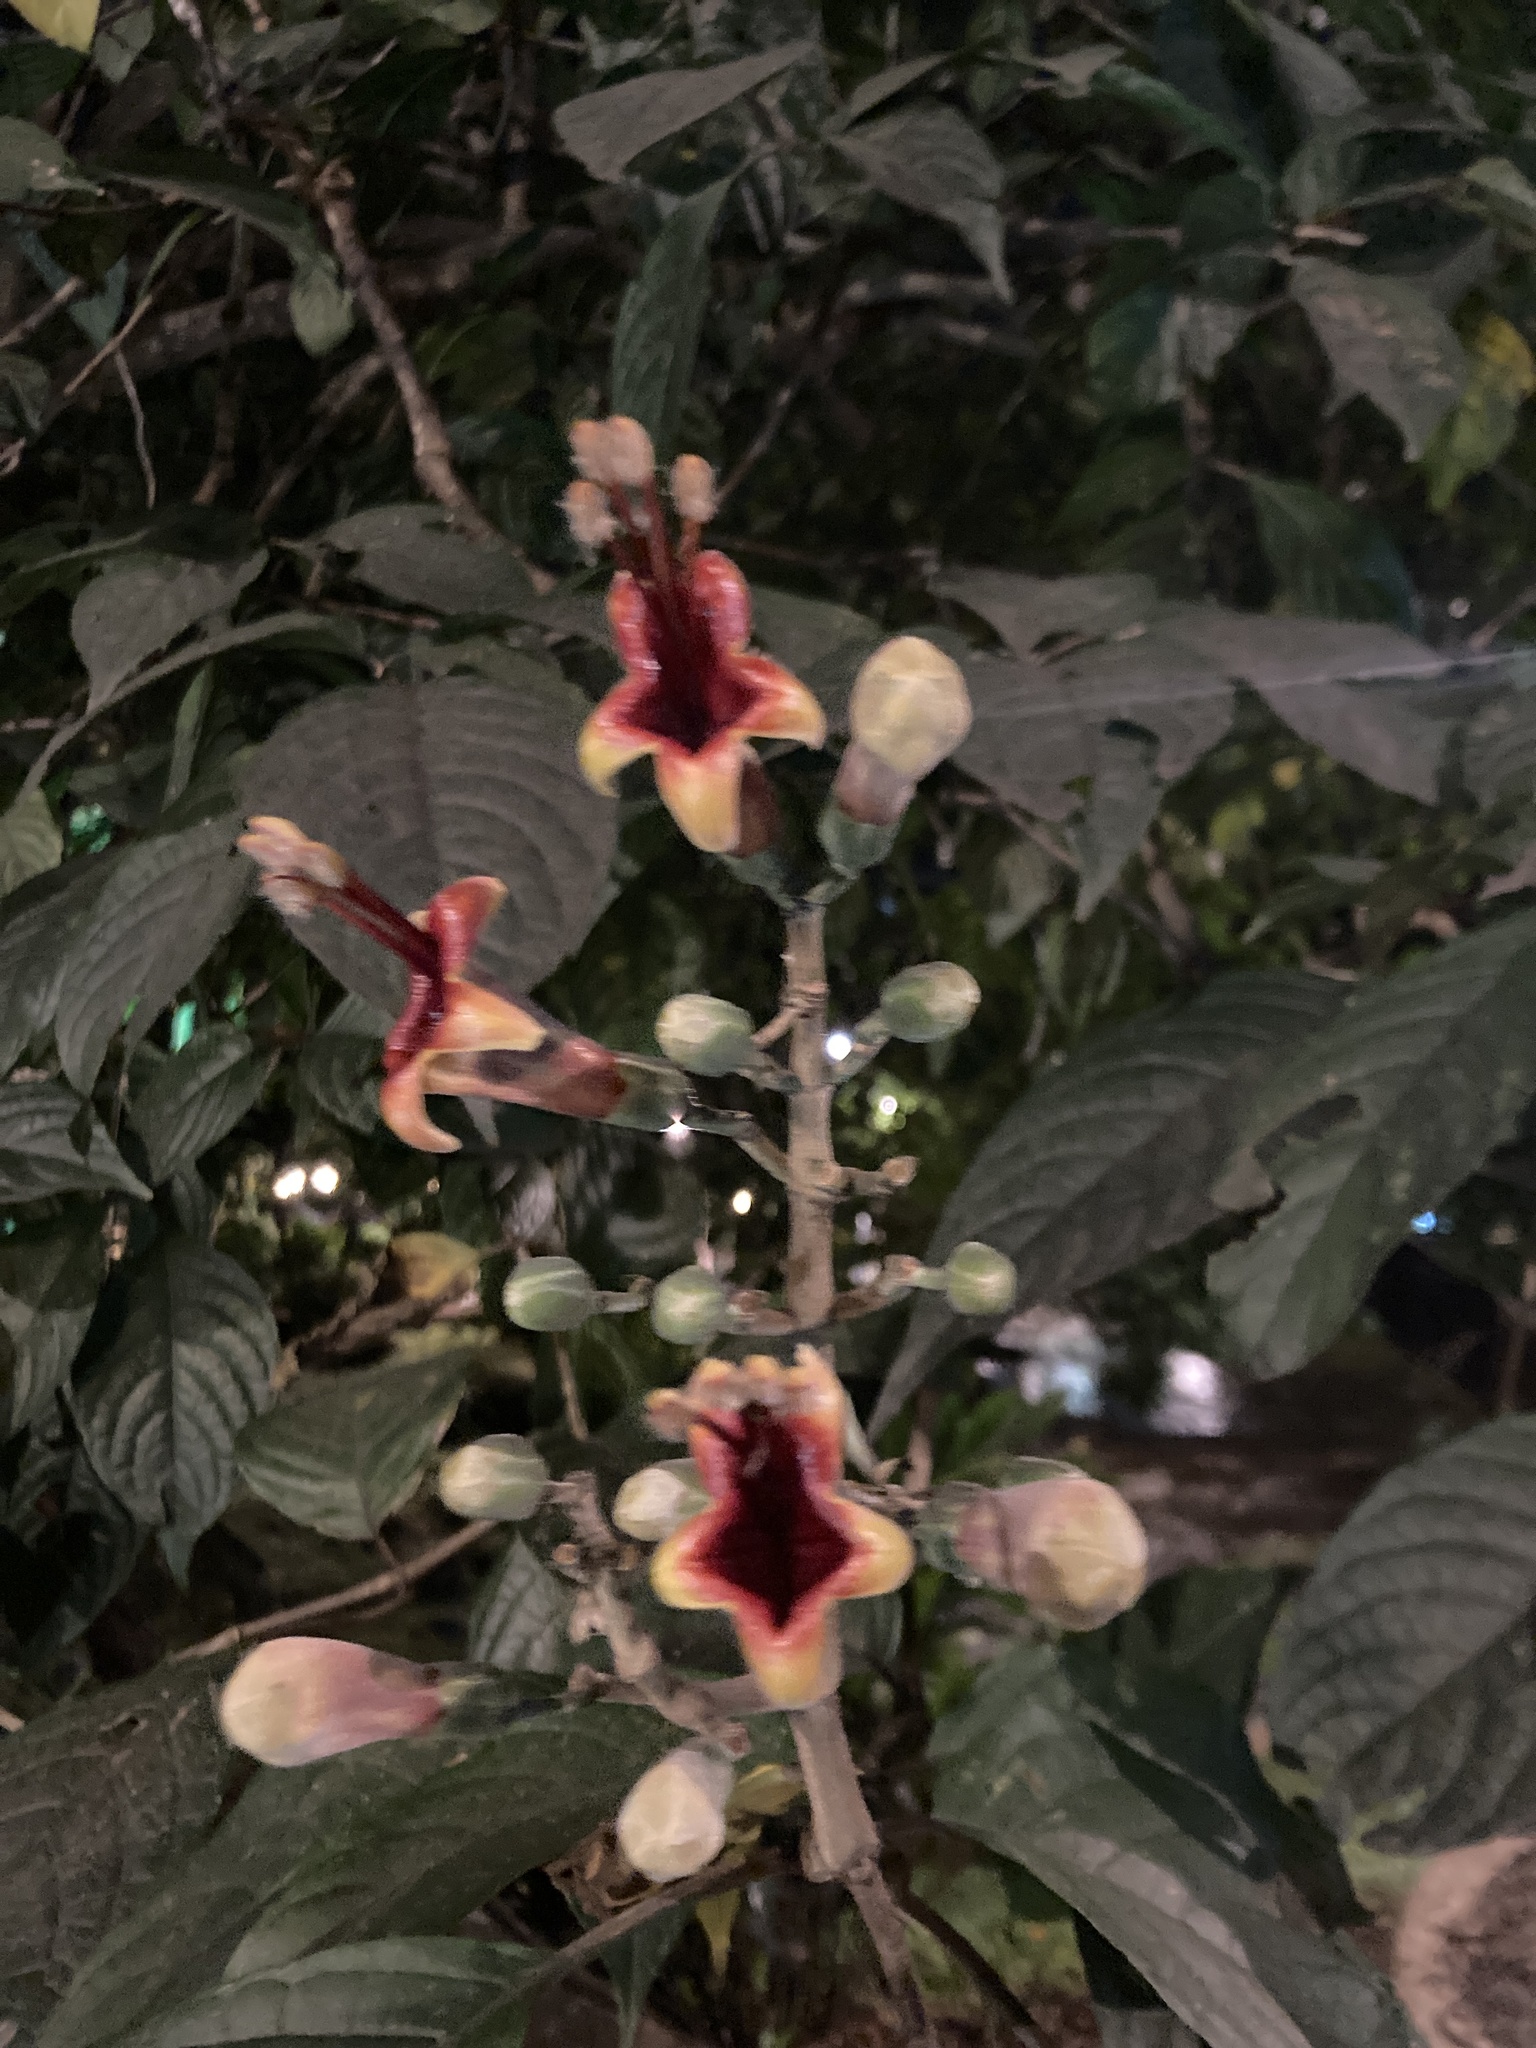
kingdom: Plantae
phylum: Tracheophyta
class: Magnoliopsida
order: Lamiales
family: Acanthaceae
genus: Trichanthera
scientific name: Trichanthera gigantea
